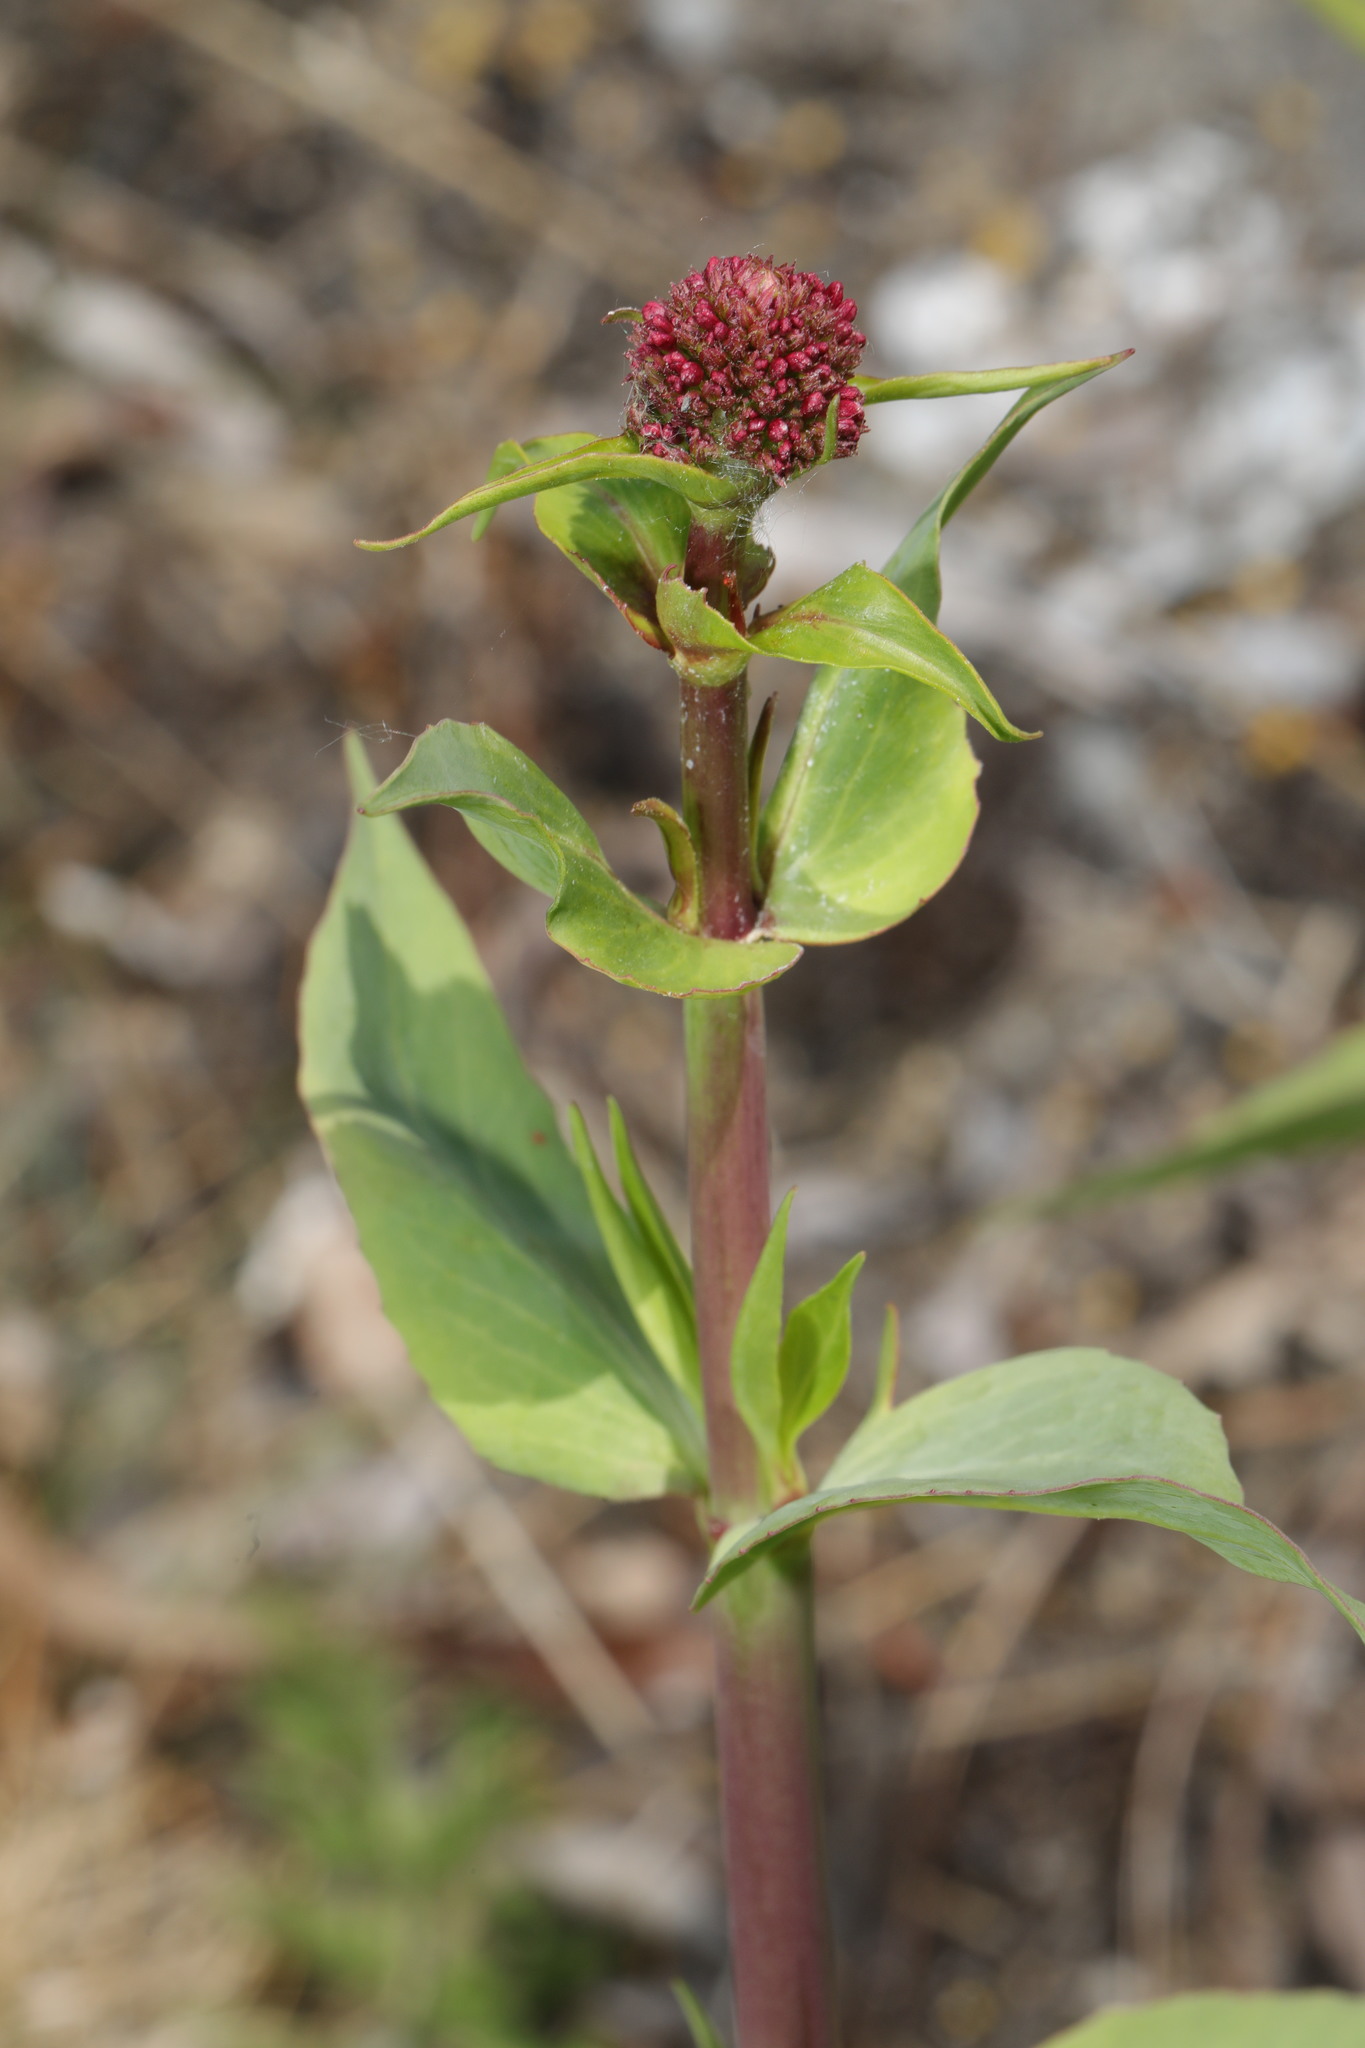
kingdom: Plantae
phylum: Tracheophyta
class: Magnoliopsida
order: Dipsacales
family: Caprifoliaceae
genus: Centranthus
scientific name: Centranthus ruber
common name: Red valerian
